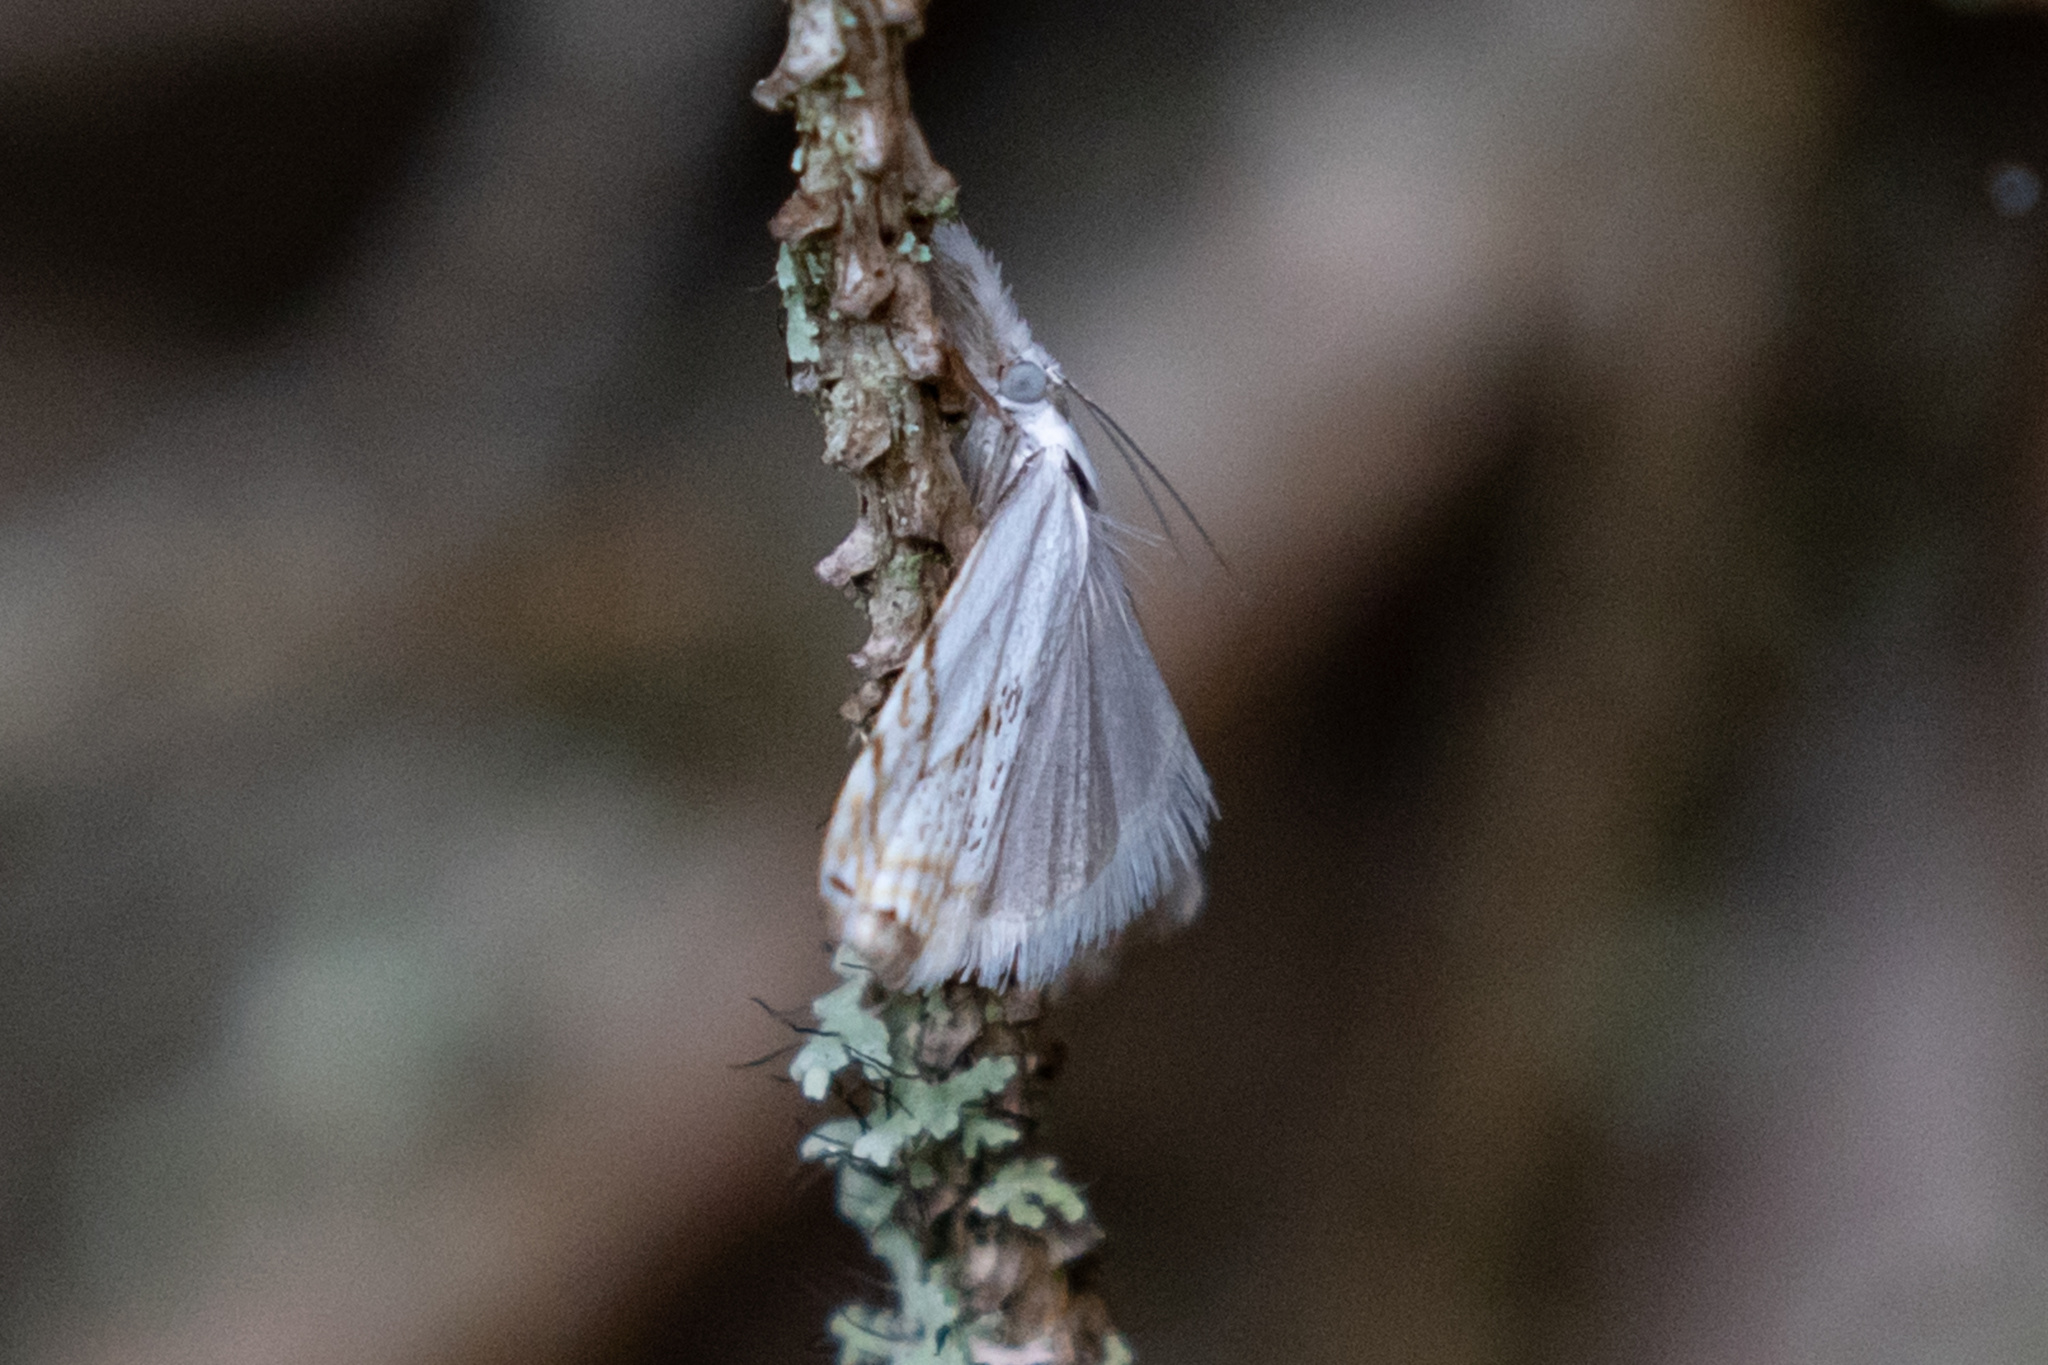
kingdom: Animalia
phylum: Arthropoda
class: Insecta
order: Lepidoptera
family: Crambidae
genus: Crambus
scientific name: Crambus albellus
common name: Small white grass-veneer
